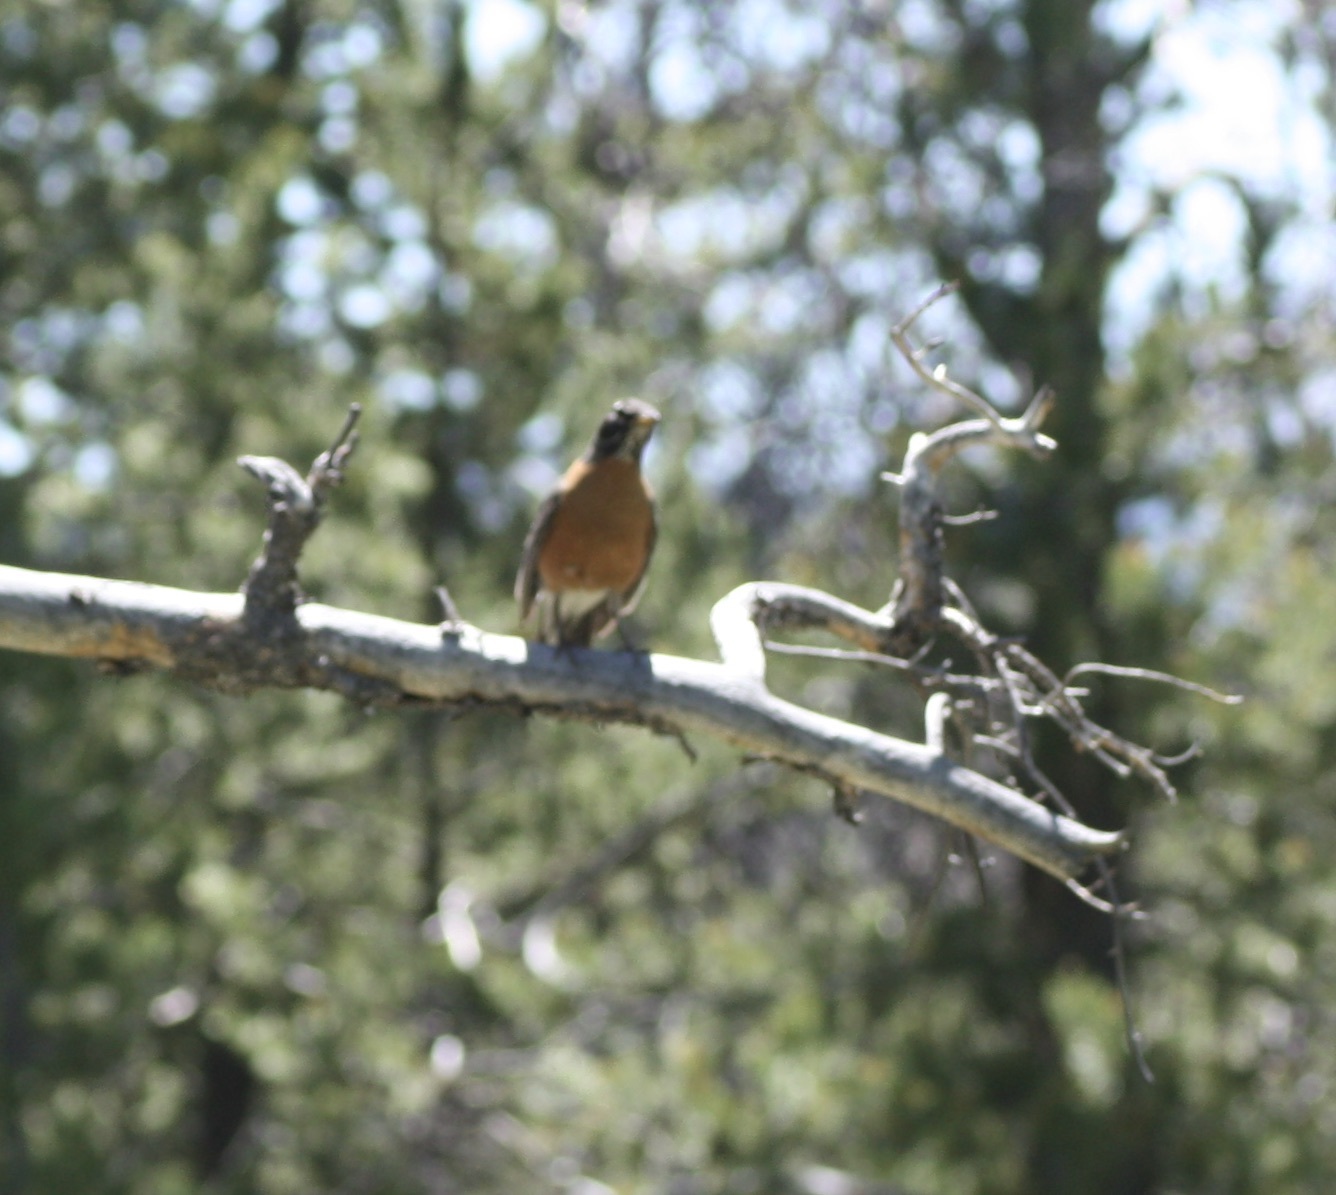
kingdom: Animalia
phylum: Chordata
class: Aves
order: Passeriformes
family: Turdidae
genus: Turdus
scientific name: Turdus migratorius
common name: American robin
